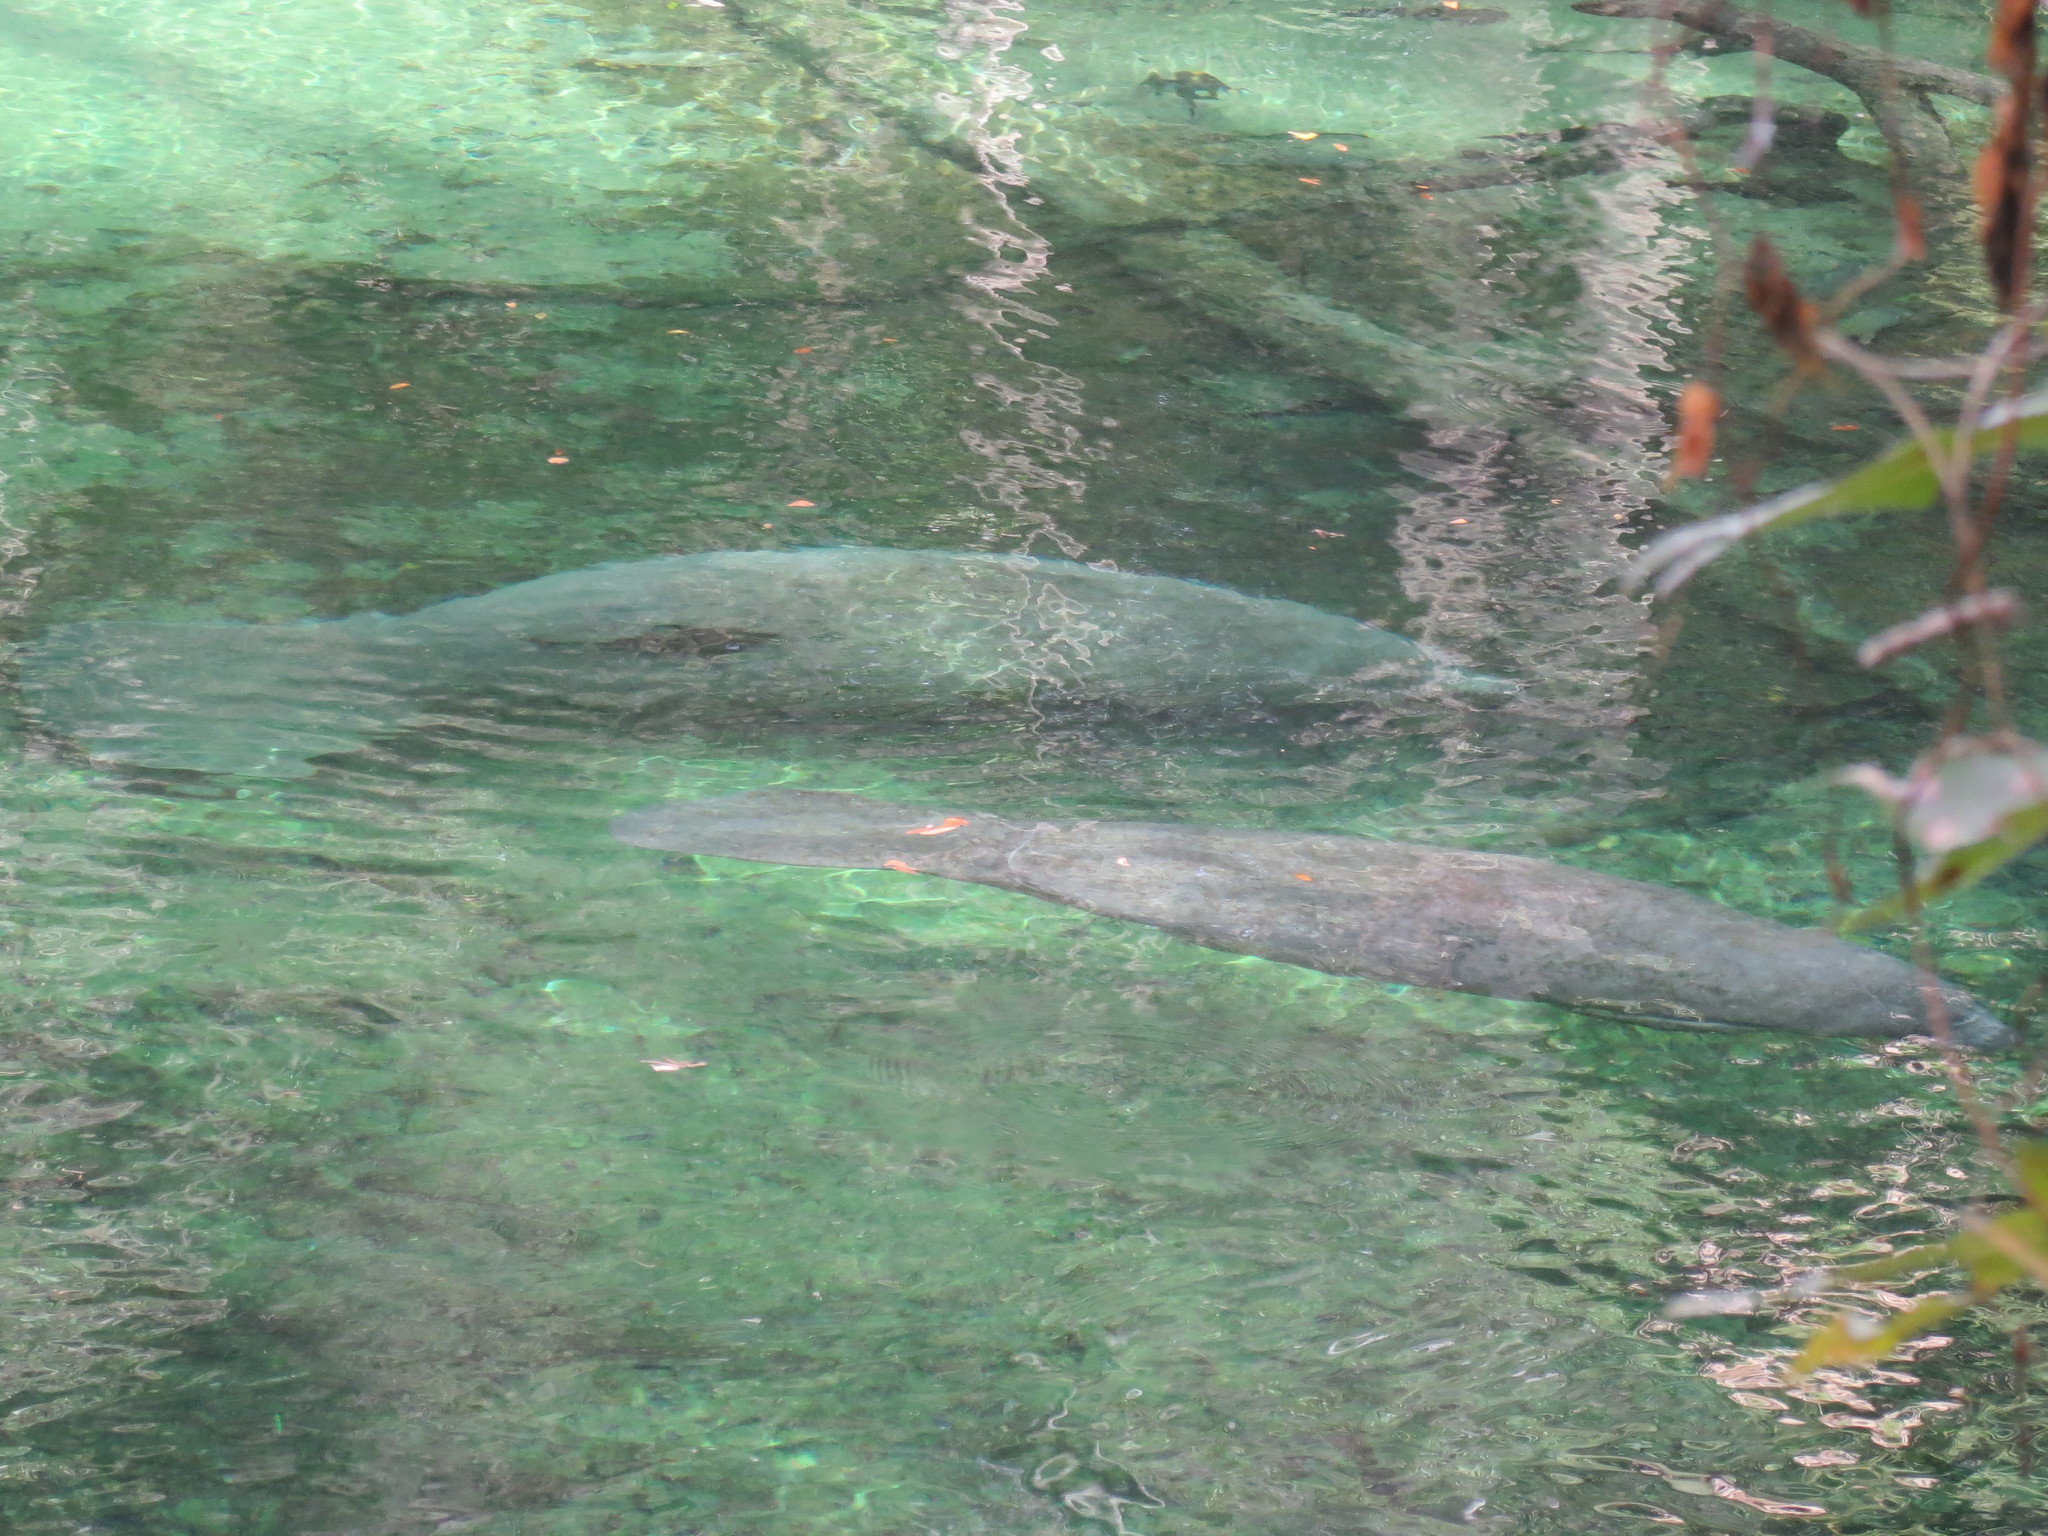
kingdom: Animalia
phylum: Chordata
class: Mammalia
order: Sirenia
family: Trichechidae
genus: Trichechus
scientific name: Trichechus manatus
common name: West indian manatee
